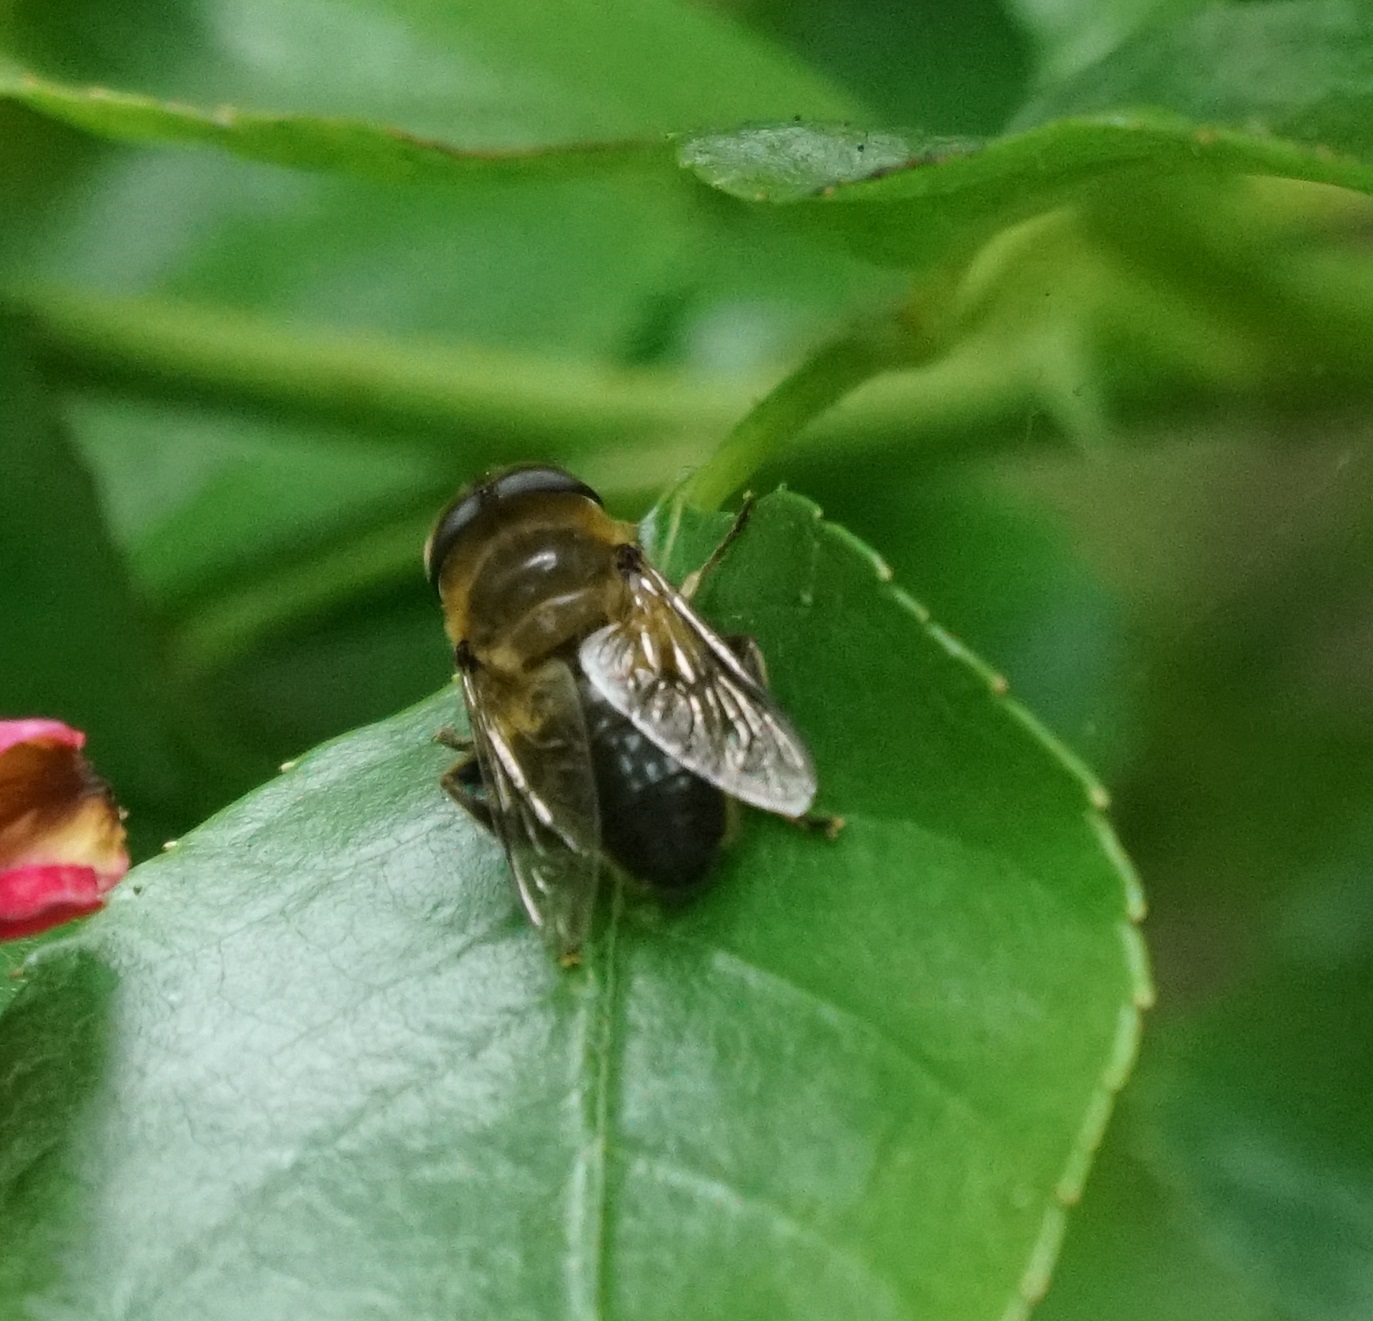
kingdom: Animalia
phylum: Arthropoda
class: Insecta
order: Diptera
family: Syrphidae
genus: Eristalis
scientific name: Eristalis tenax
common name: Drone fly
